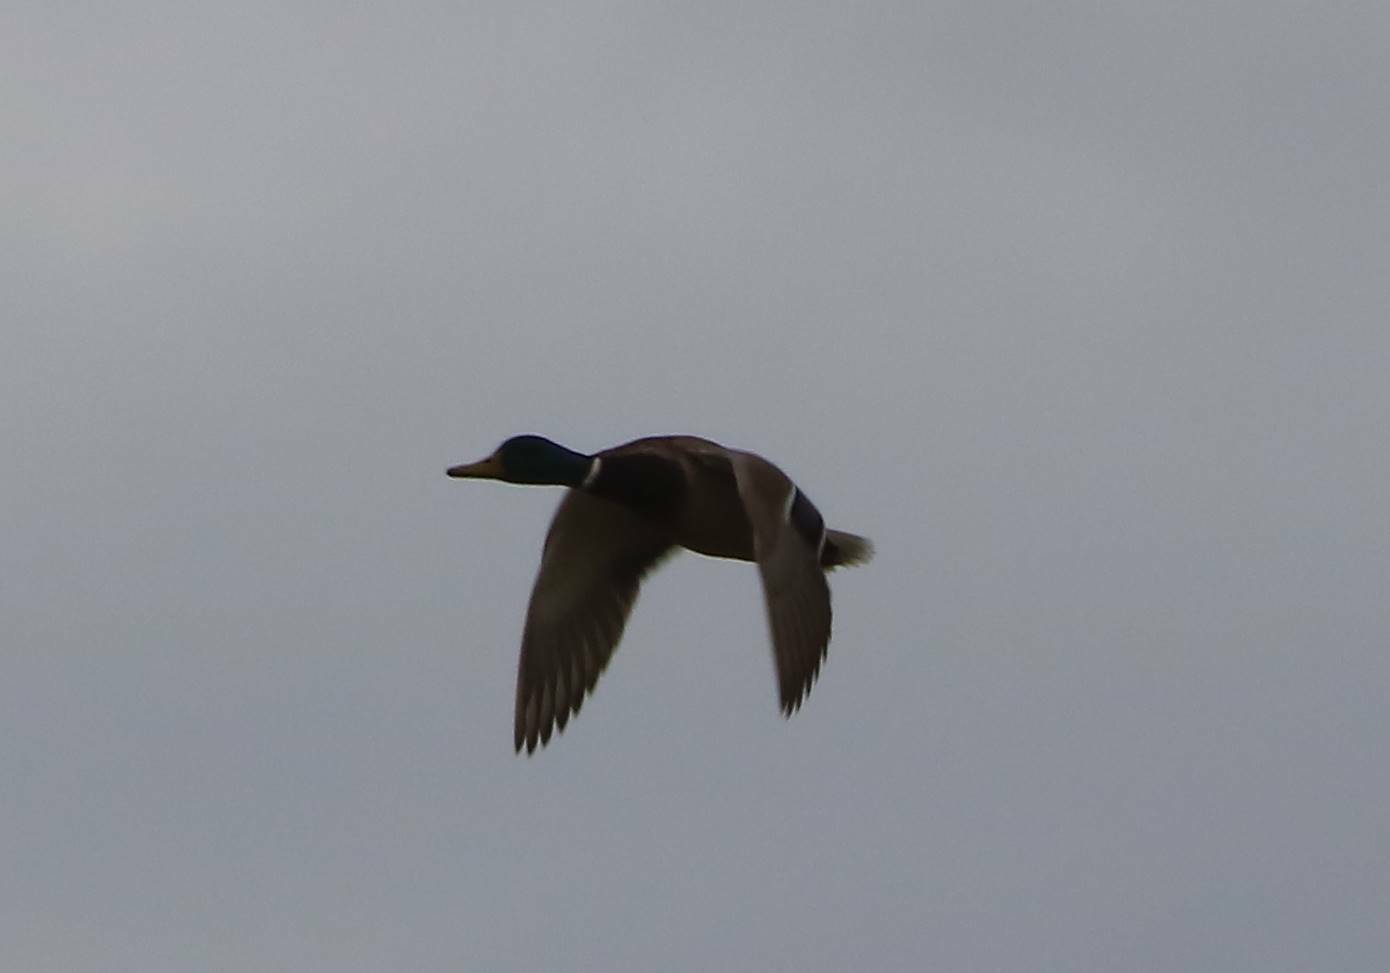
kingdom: Animalia
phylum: Chordata
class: Aves
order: Anseriformes
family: Anatidae
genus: Anas
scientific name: Anas platyrhynchos
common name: Mallard
